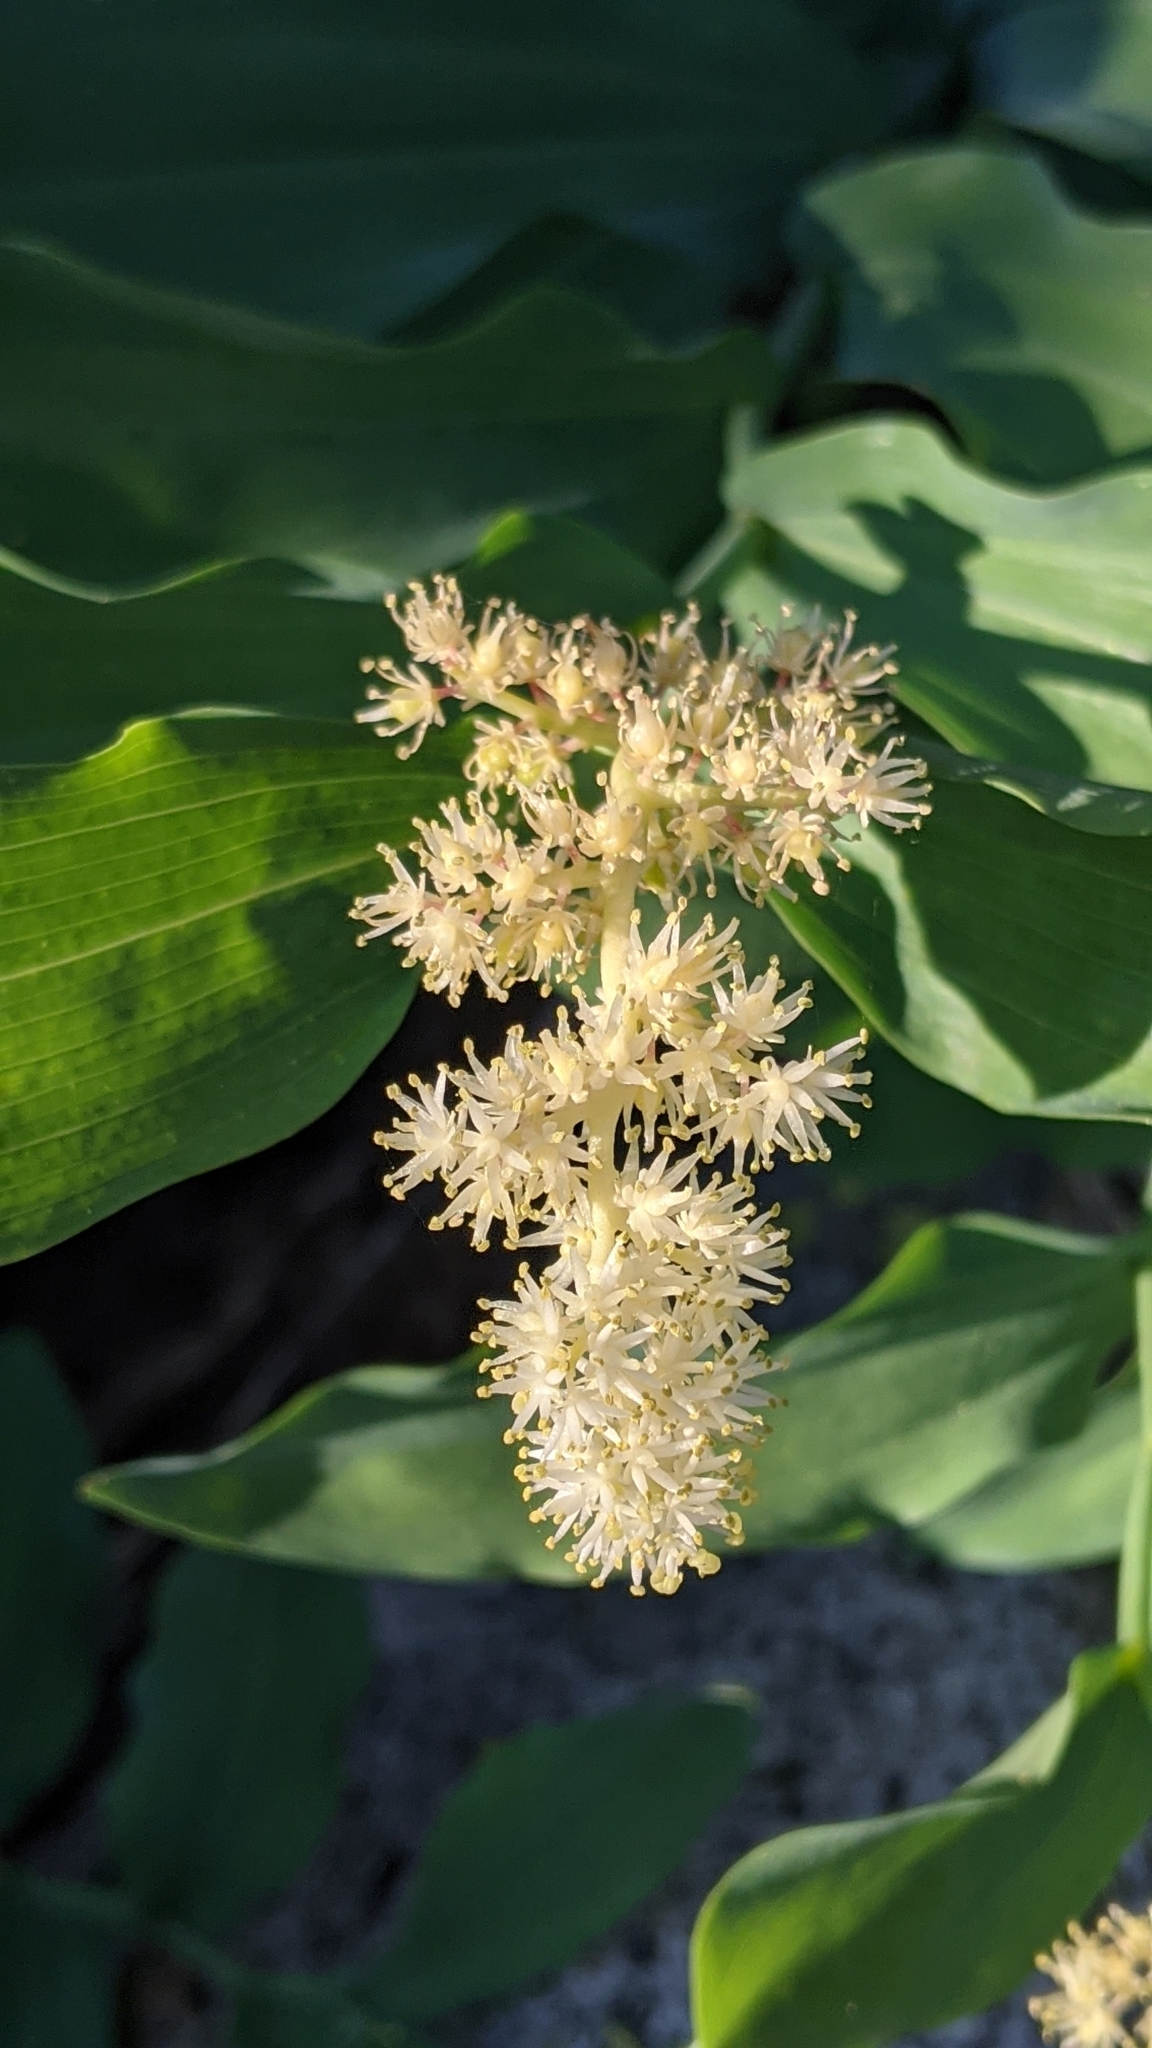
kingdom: Plantae
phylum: Tracheophyta
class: Liliopsida
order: Asparagales
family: Asparagaceae
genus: Maianthemum
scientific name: Maianthemum racemosum
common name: False spikenard
